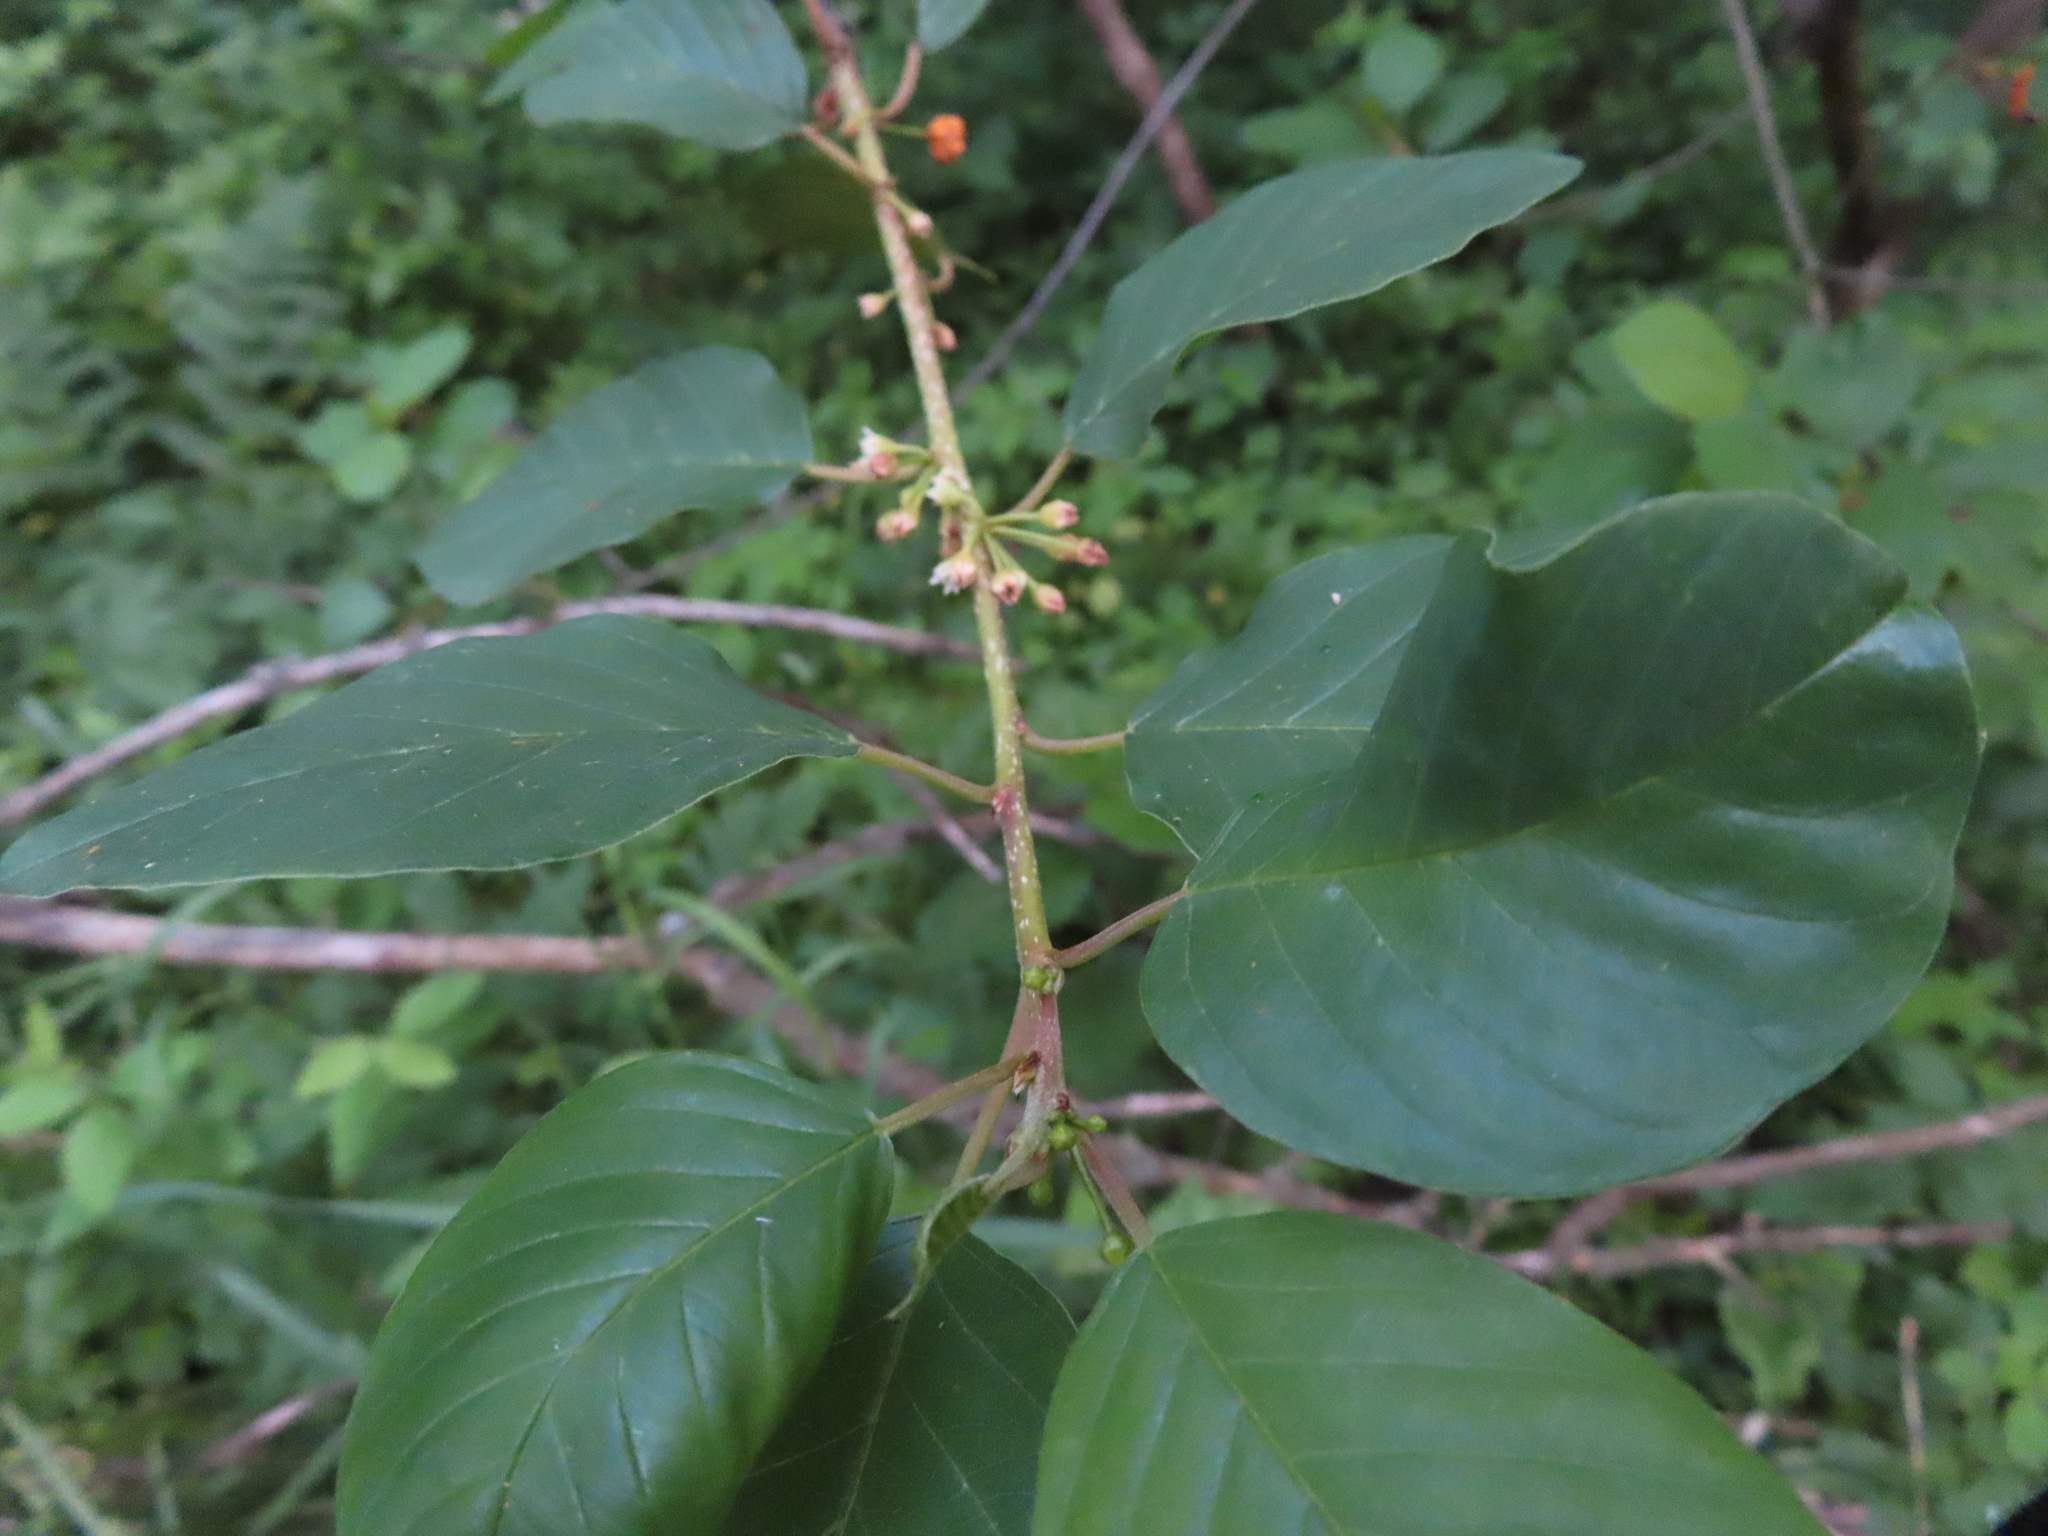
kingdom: Plantae
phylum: Tracheophyta
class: Magnoliopsida
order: Rosales
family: Rhamnaceae
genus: Frangula
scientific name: Frangula alnus
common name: Alder buckthorn
